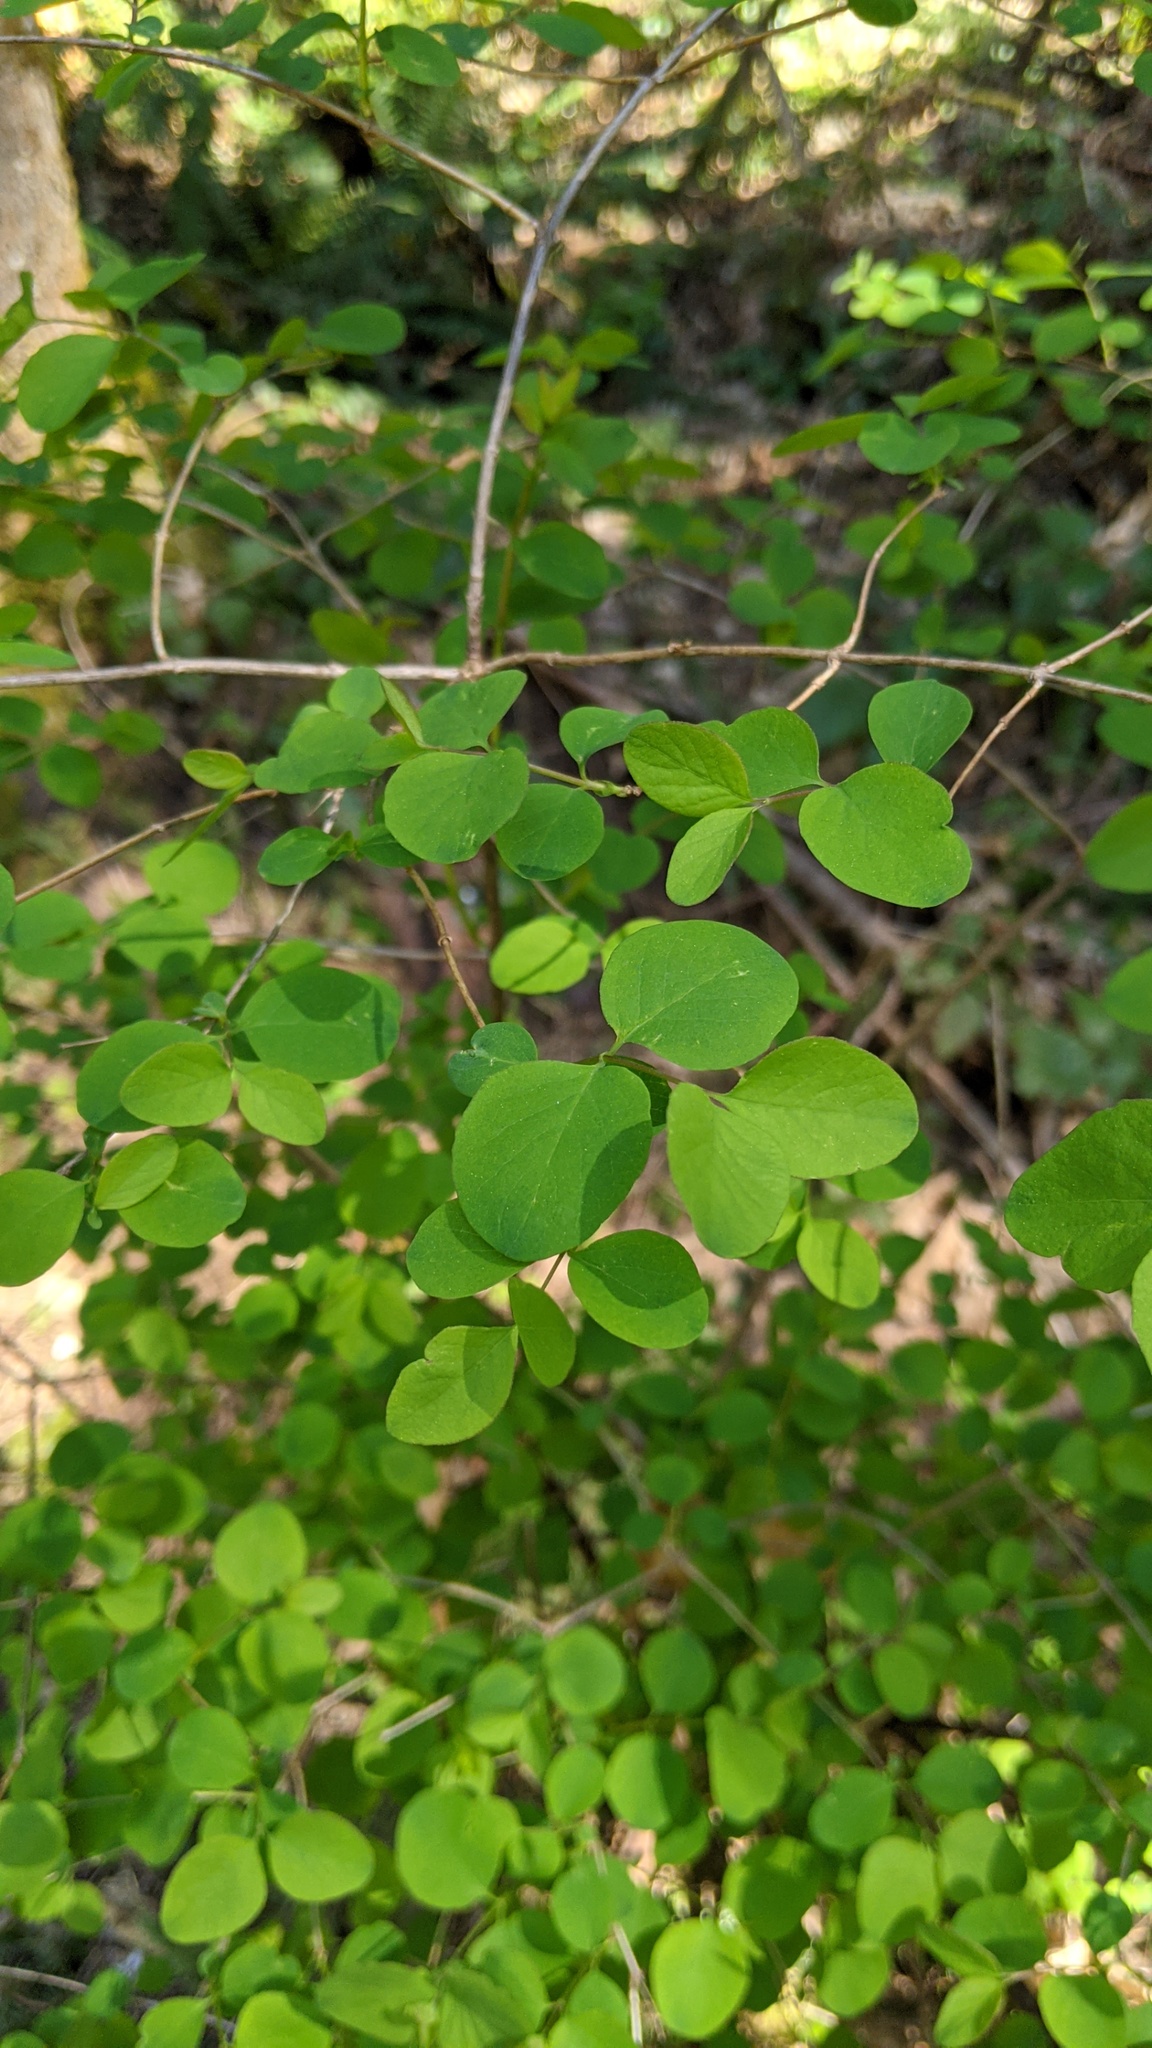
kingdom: Plantae
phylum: Tracheophyta
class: Magnoliopsida
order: Dipsacales
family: Caprifoliaceae
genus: Symphoricarpos
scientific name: Symphoricarpos albus
